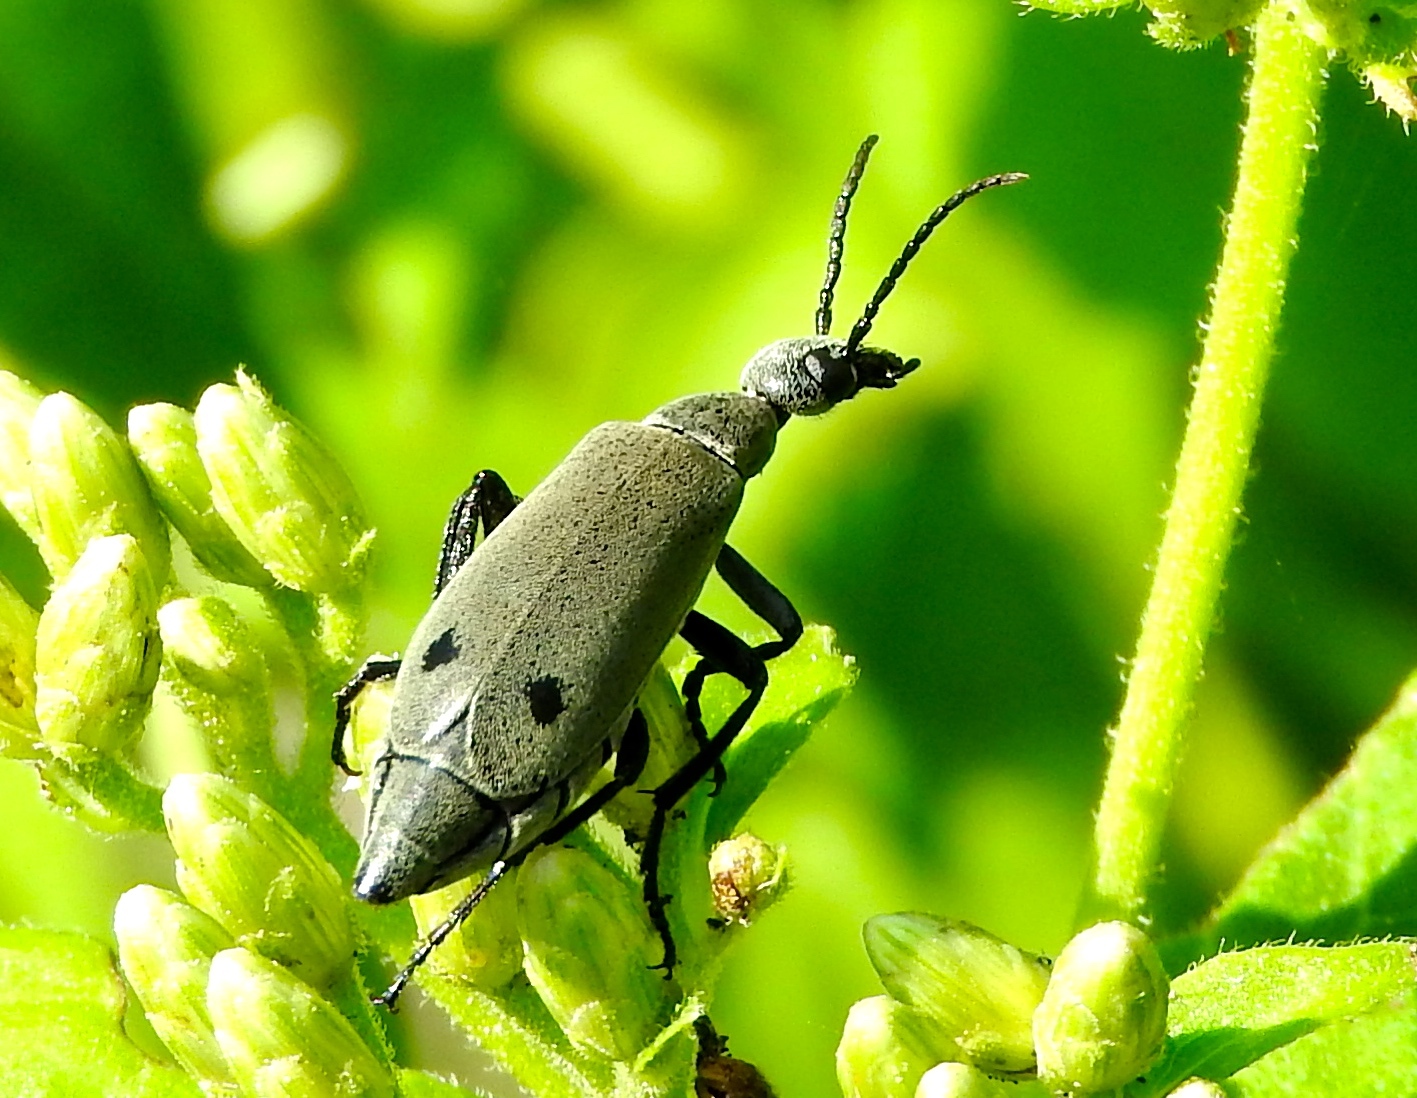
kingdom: Animalia
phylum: Arthropoda
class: Insecta
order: Coleoptera
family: Meloidae
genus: Epicauta
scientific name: Epicauta bipunctata
